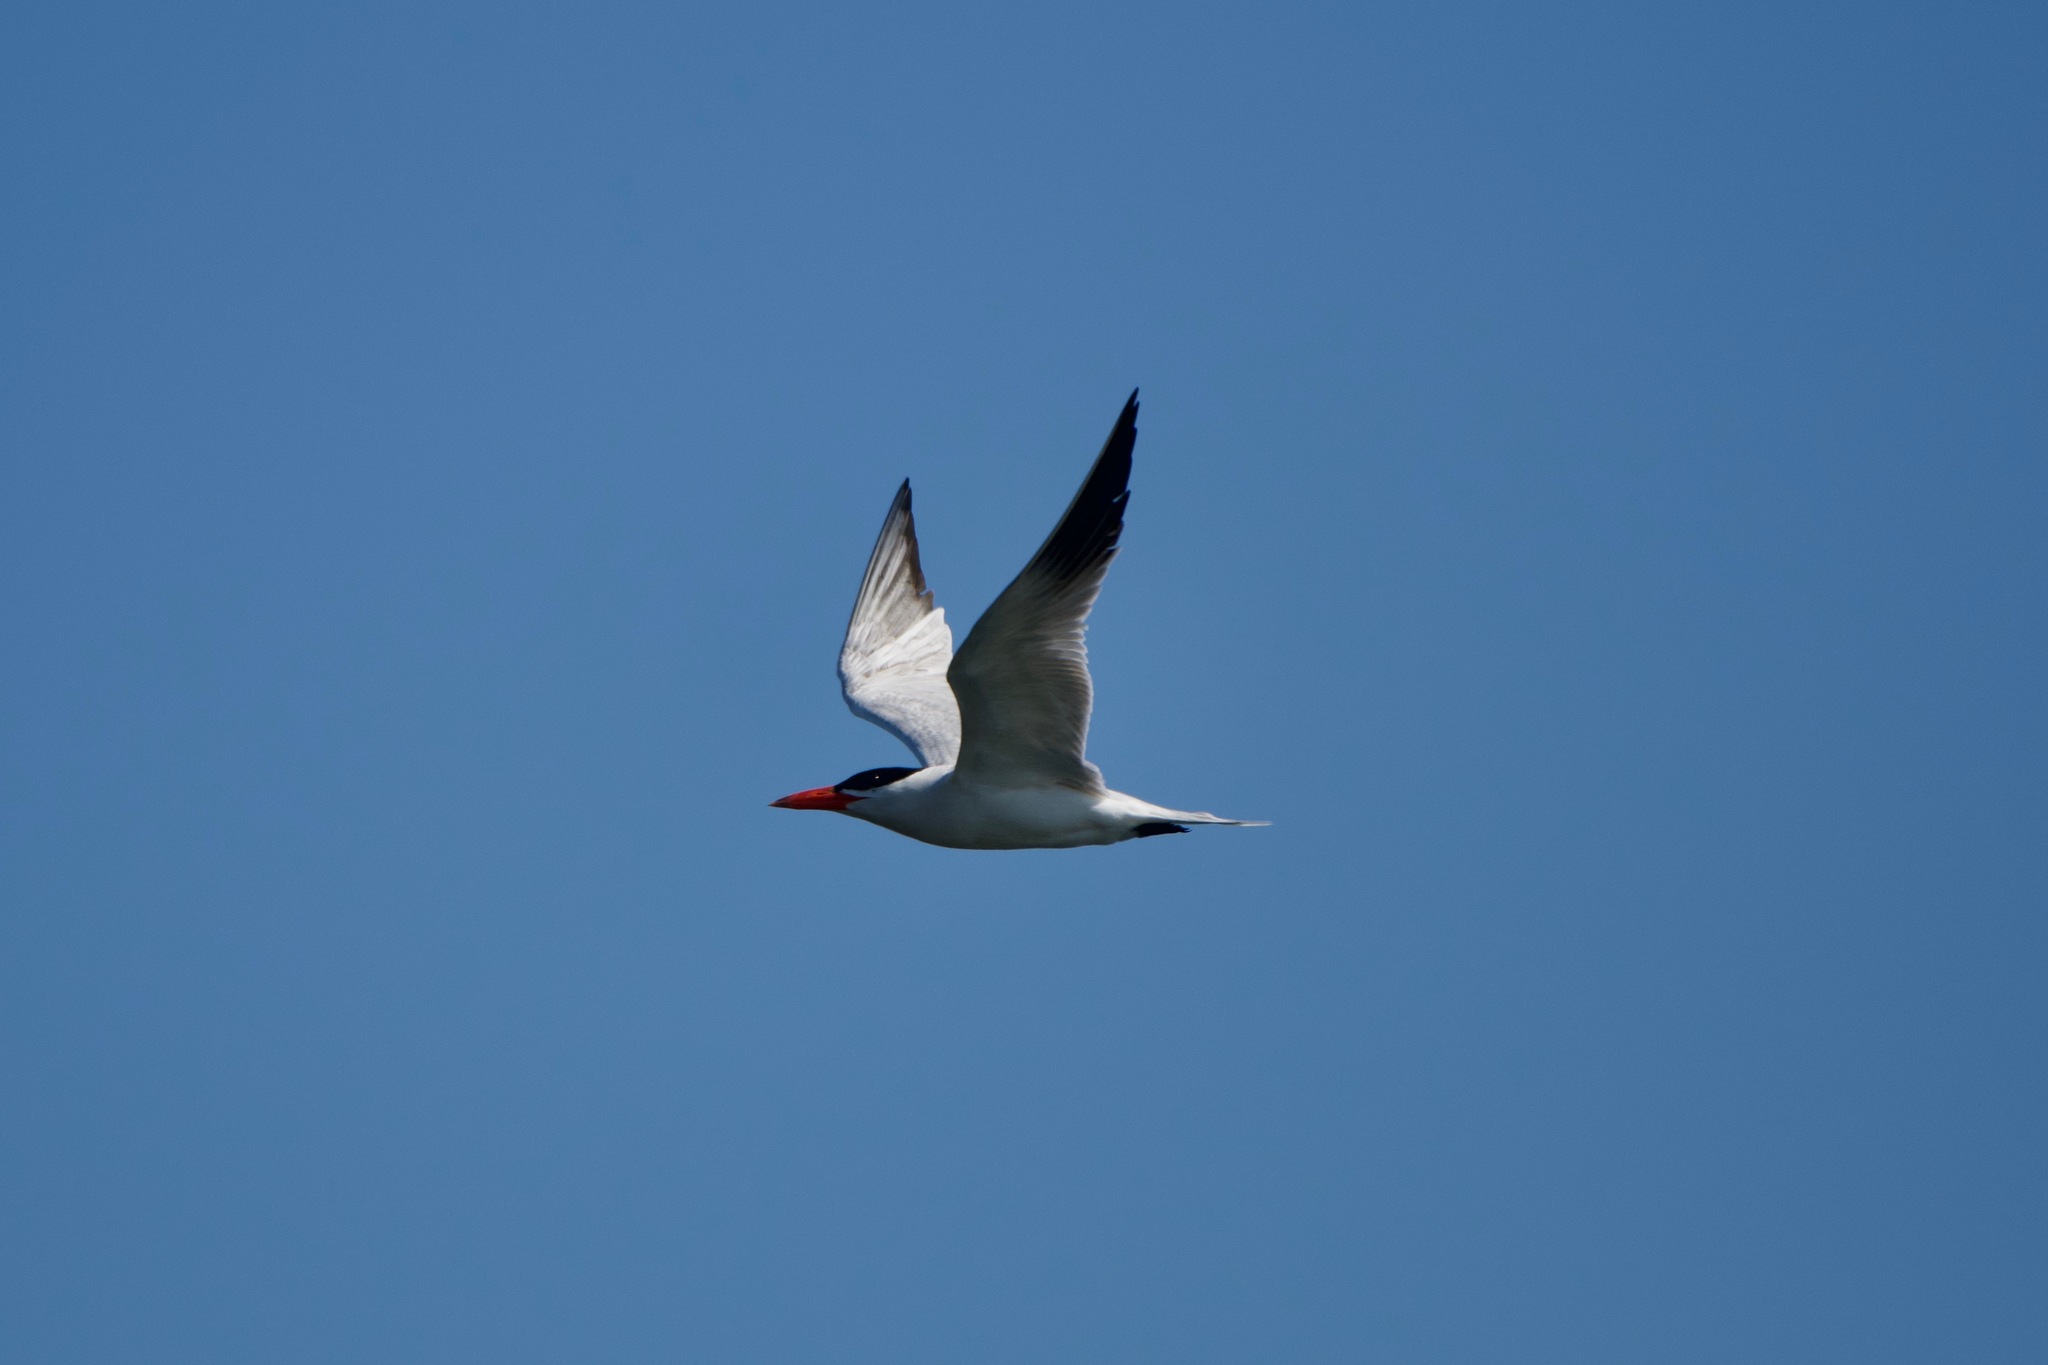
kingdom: Animalia
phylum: Chordata
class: Aves
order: Charadriiformes
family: Laridae
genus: Hydroprogne
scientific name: Hydroprogne caspia
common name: Caspian tern
